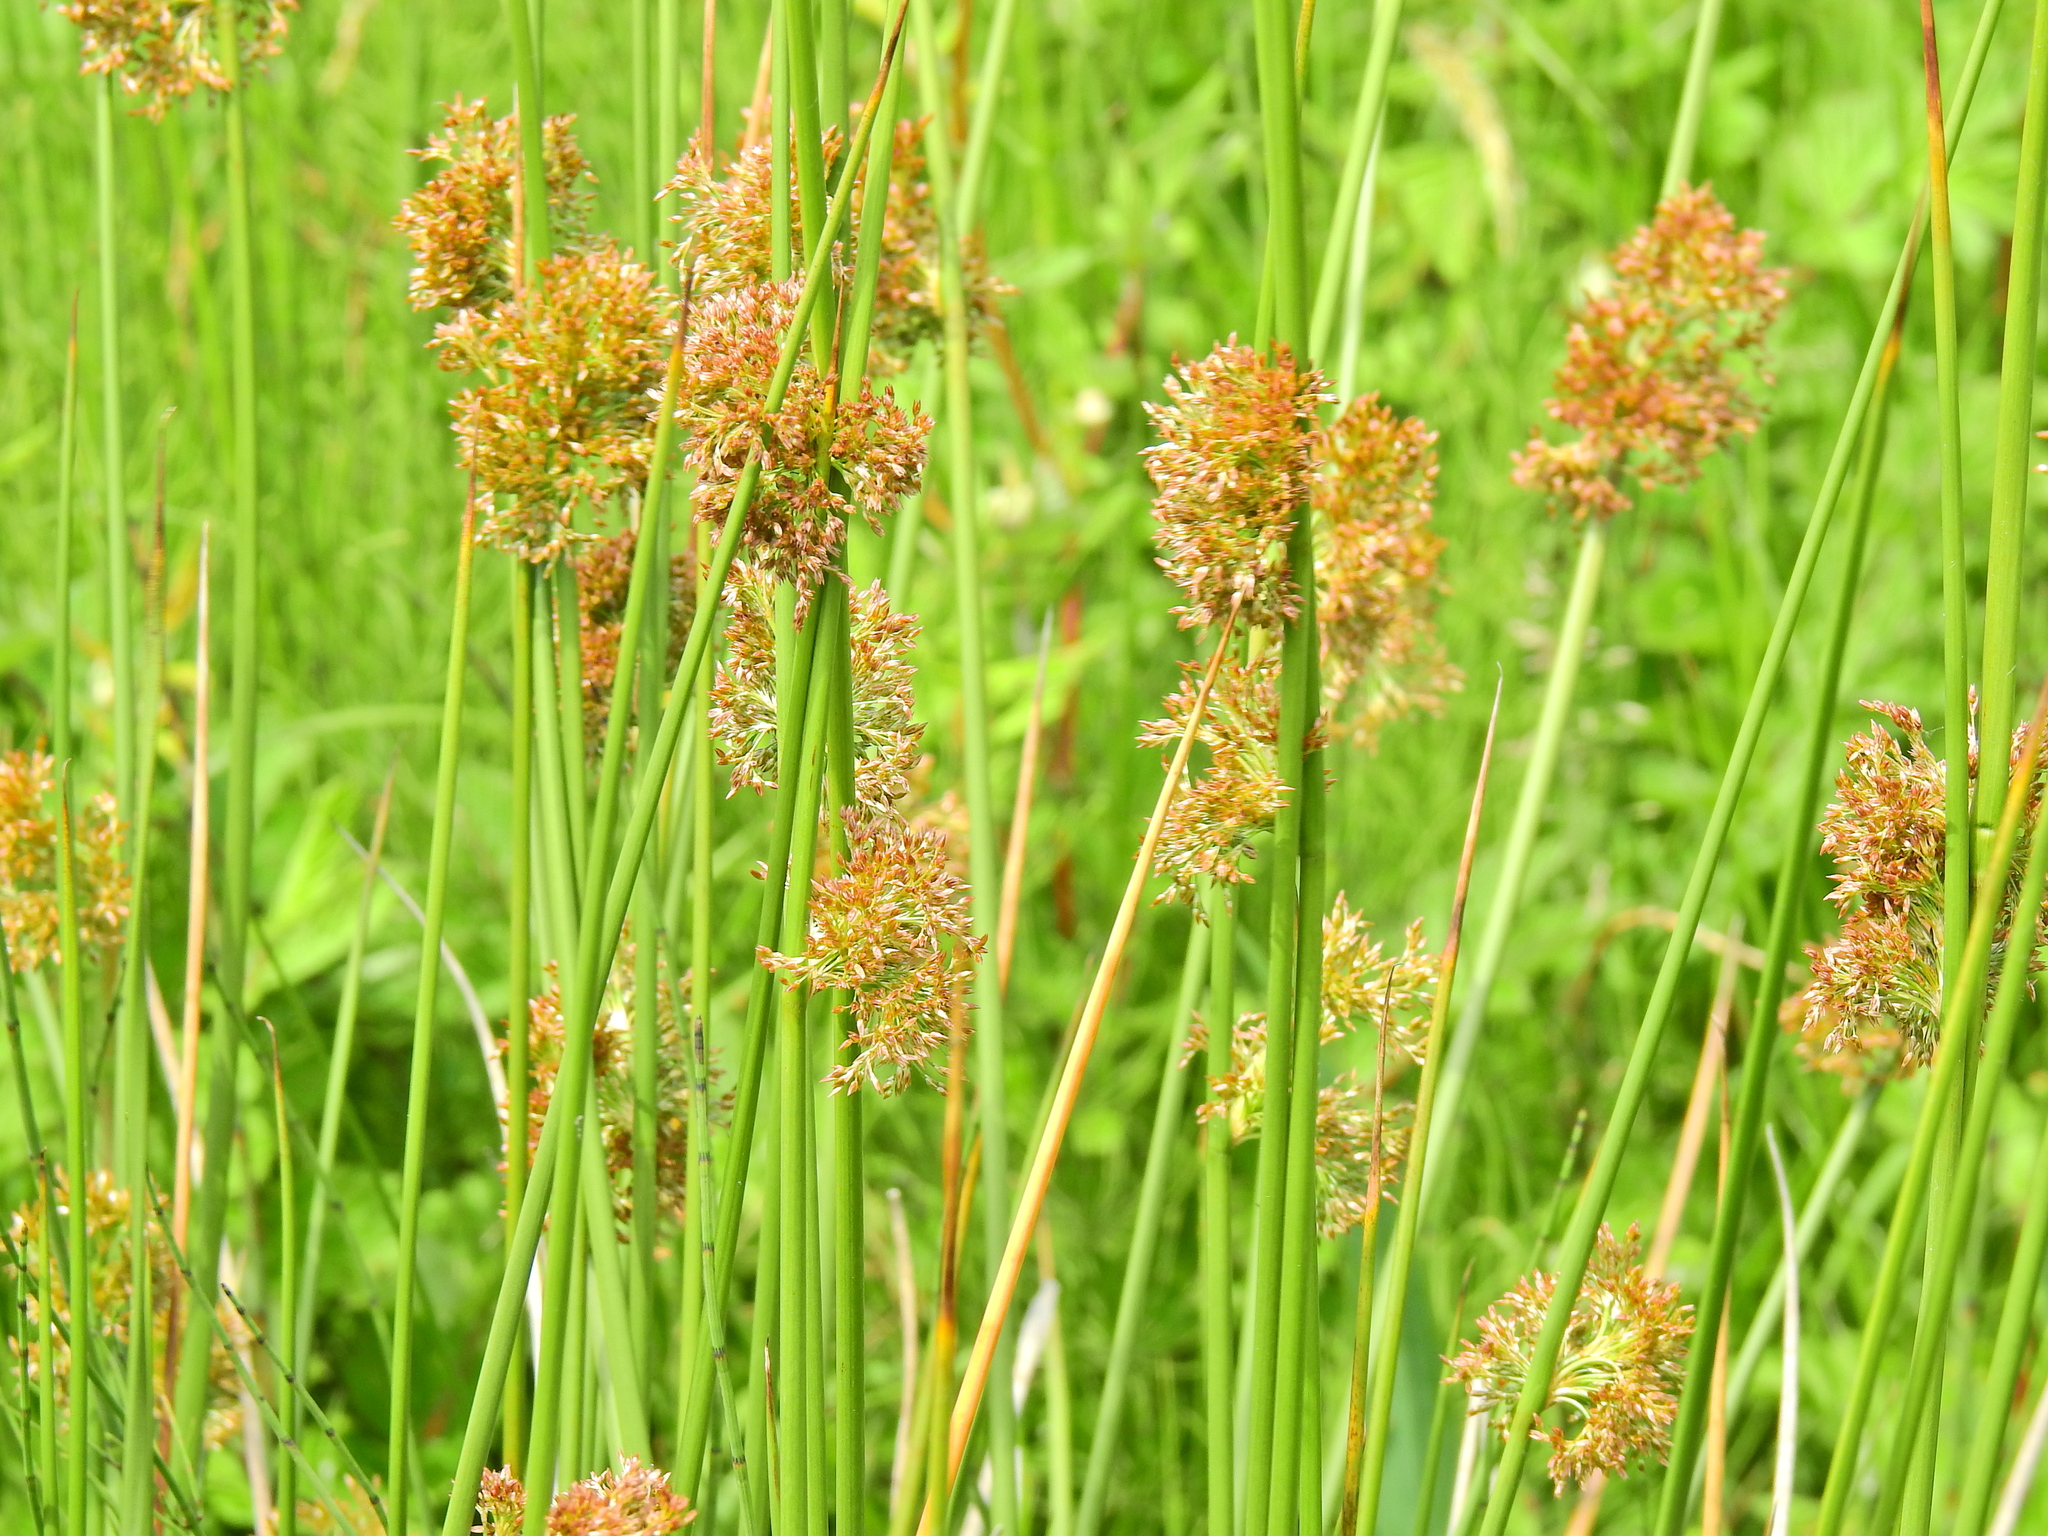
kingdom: Plantae
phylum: Tracheophyta
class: Liliopsida
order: Poales
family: Juncaceae
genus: Juncus
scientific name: Juncus effusus
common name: Soft rush
